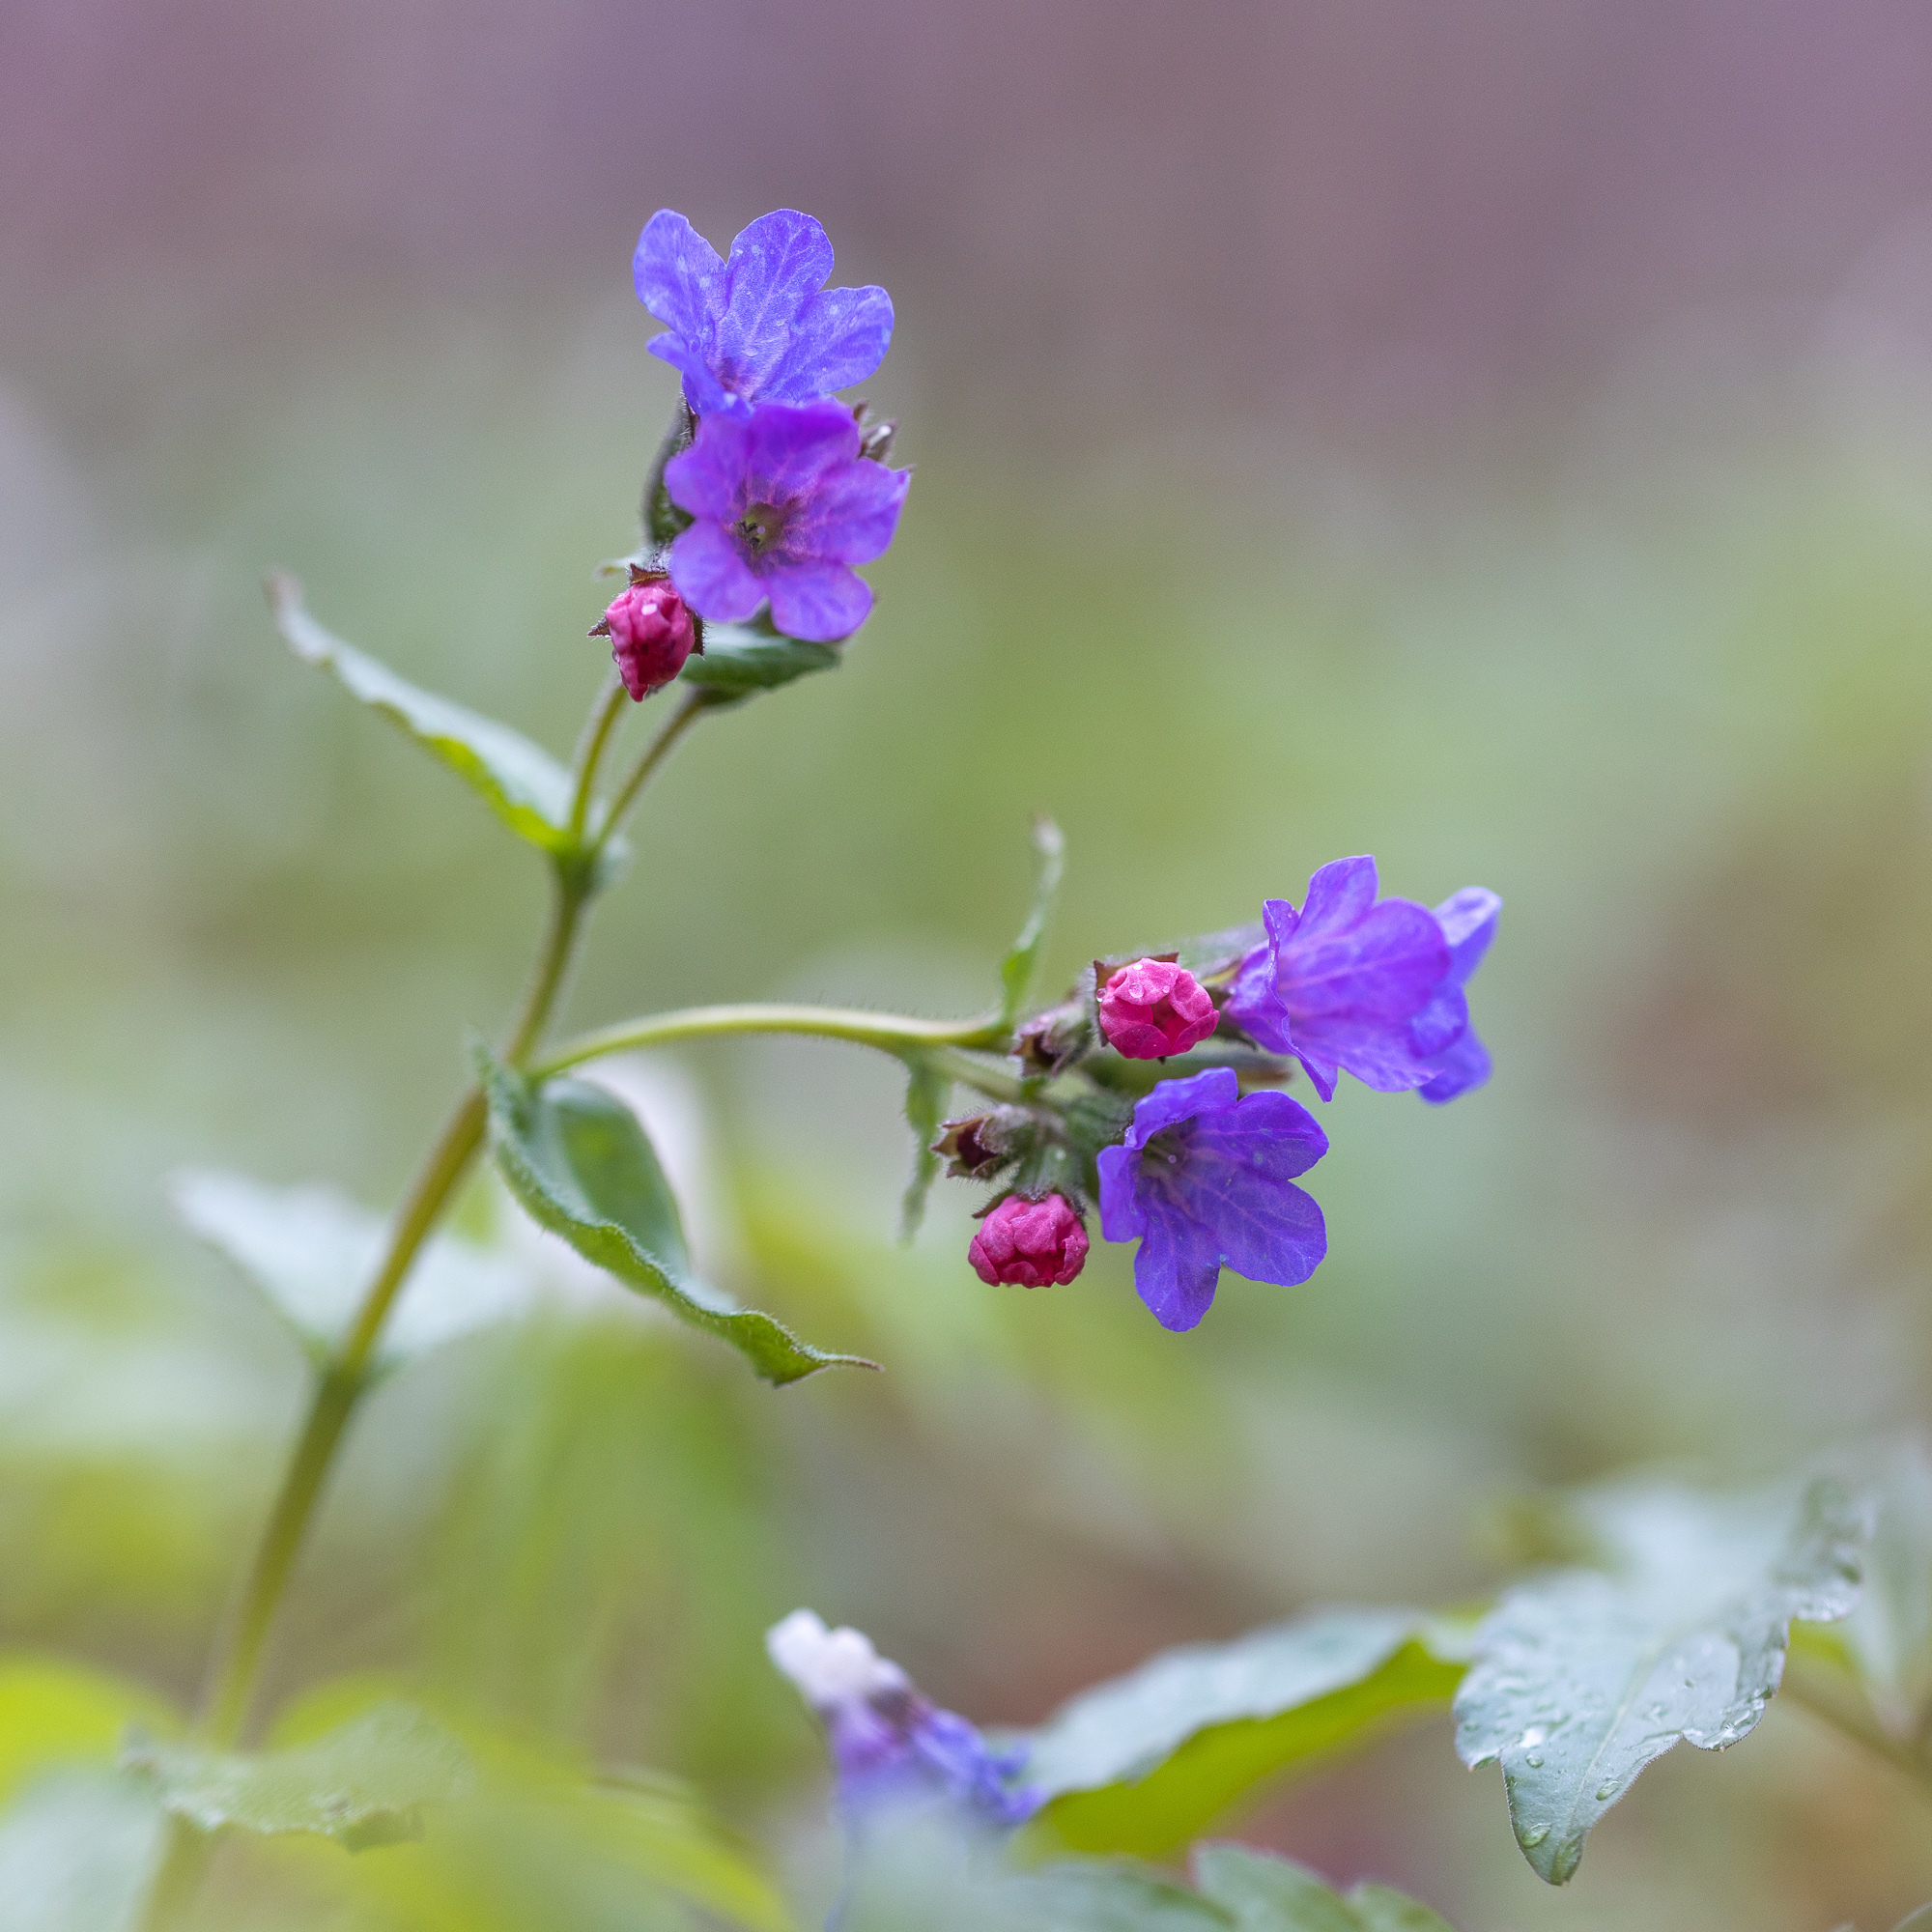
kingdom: Plantae
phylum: Tracheophyta
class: Magnoliopsida
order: Boraginales
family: Boraginaceae
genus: Pulmonaria
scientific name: Pulmonaria obscura
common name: Suffolk lungwort
